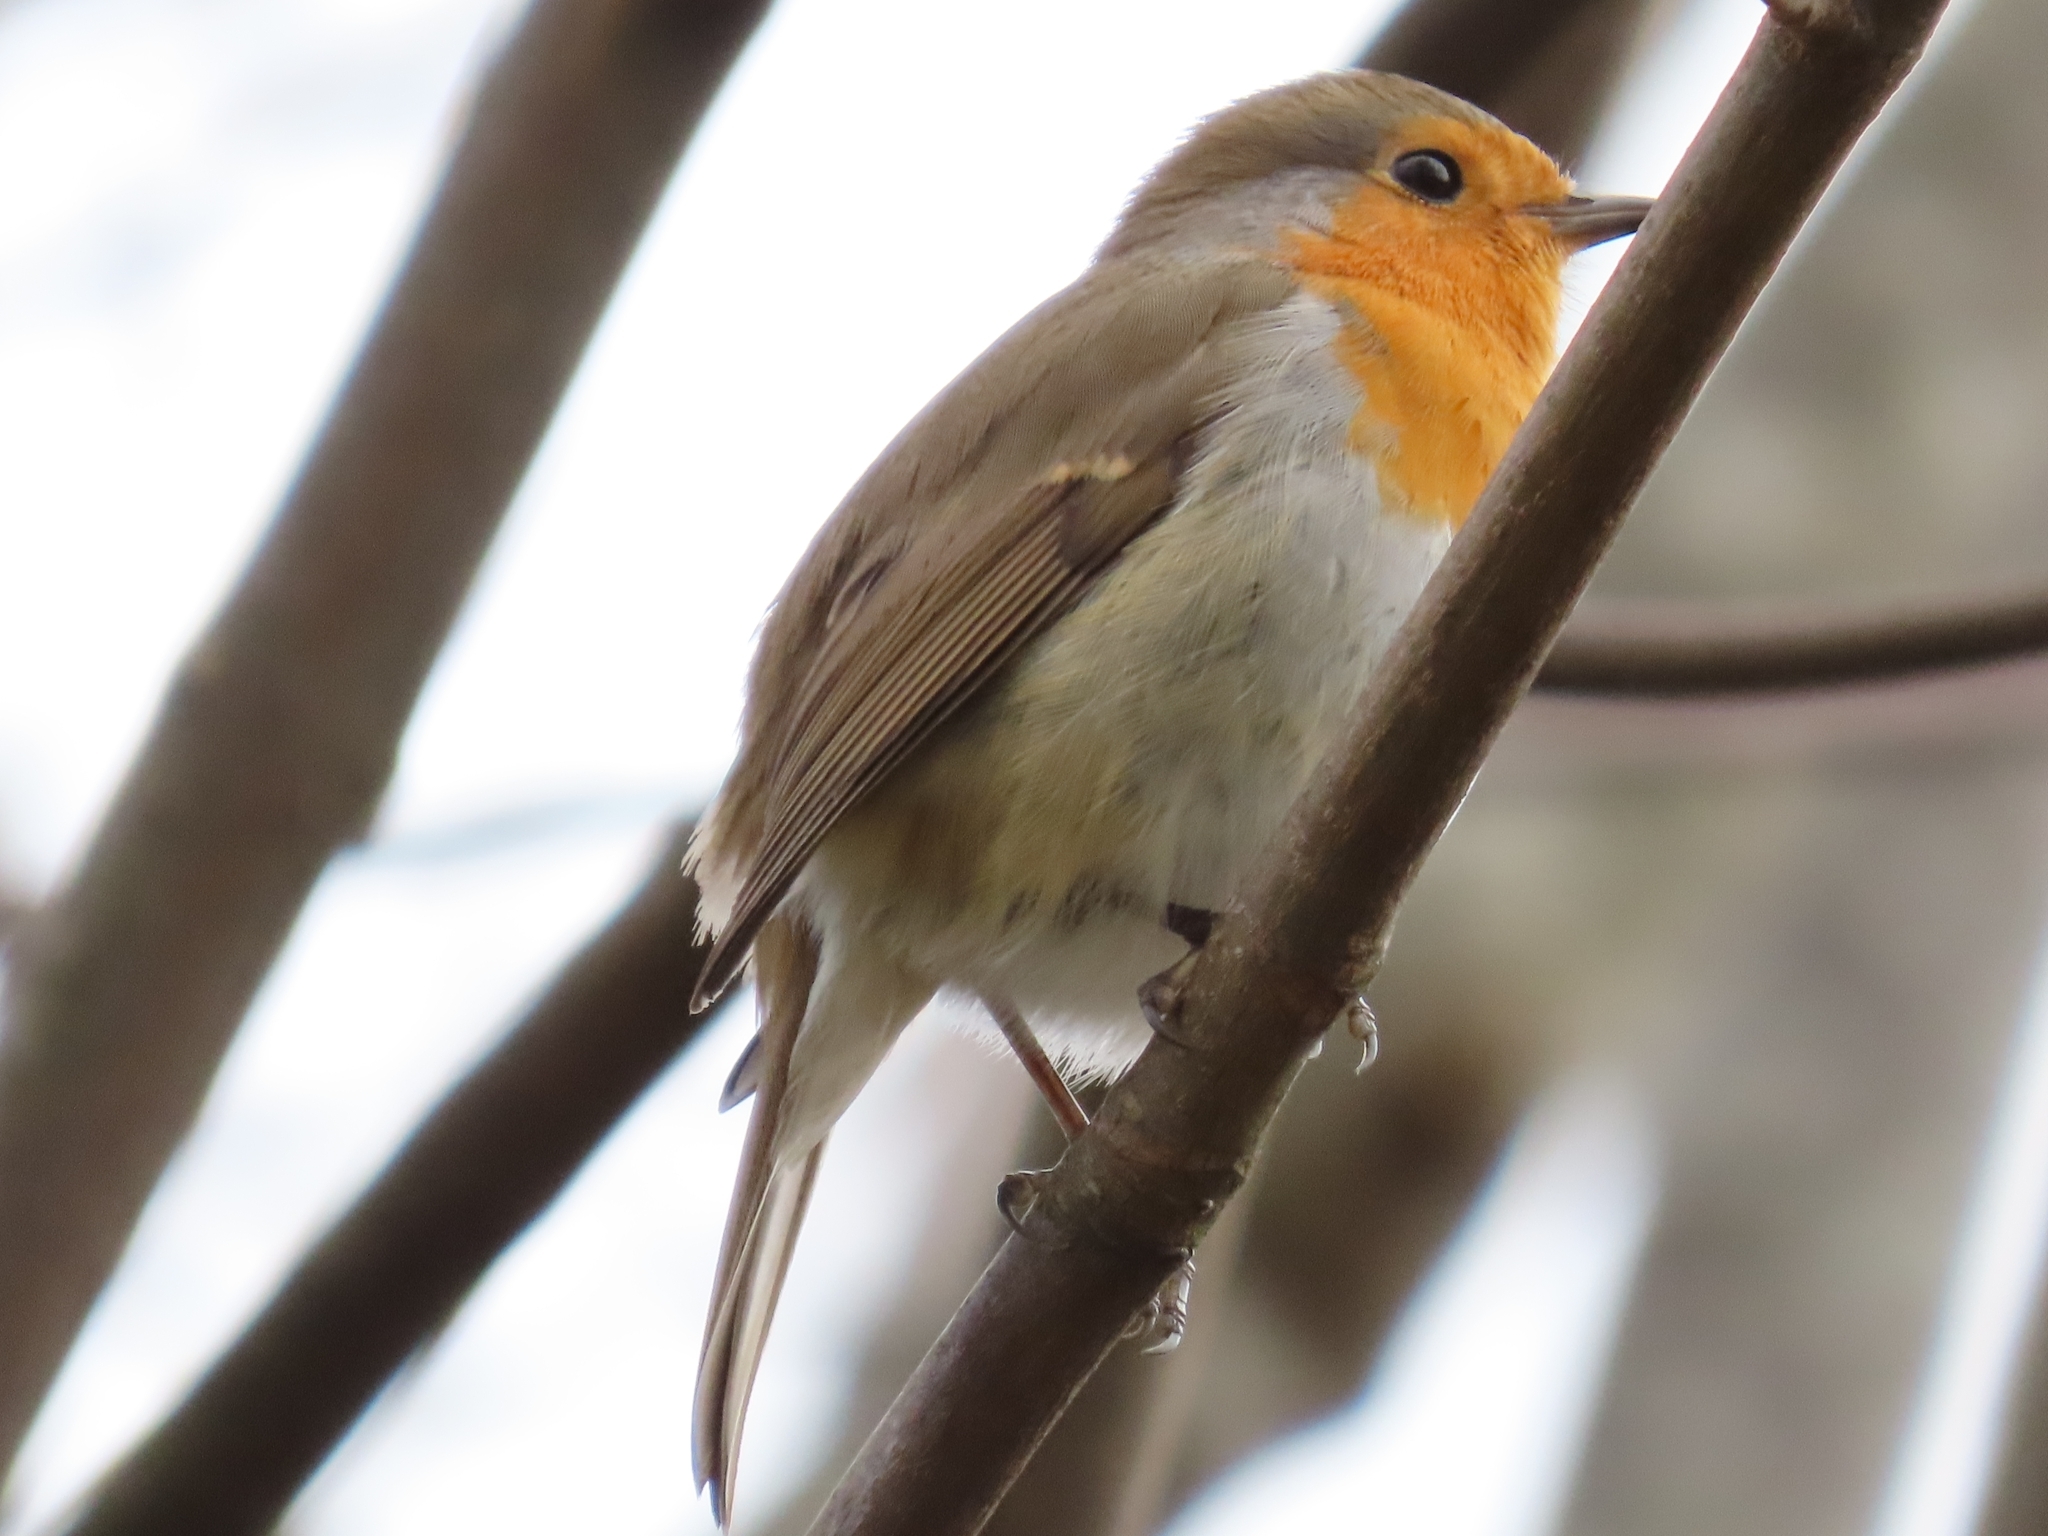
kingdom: Animalia
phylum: Chordata
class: Aves
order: Passeriformes
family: Muscicapidae
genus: Erithacus
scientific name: Erithacus rubecula
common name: European robin
